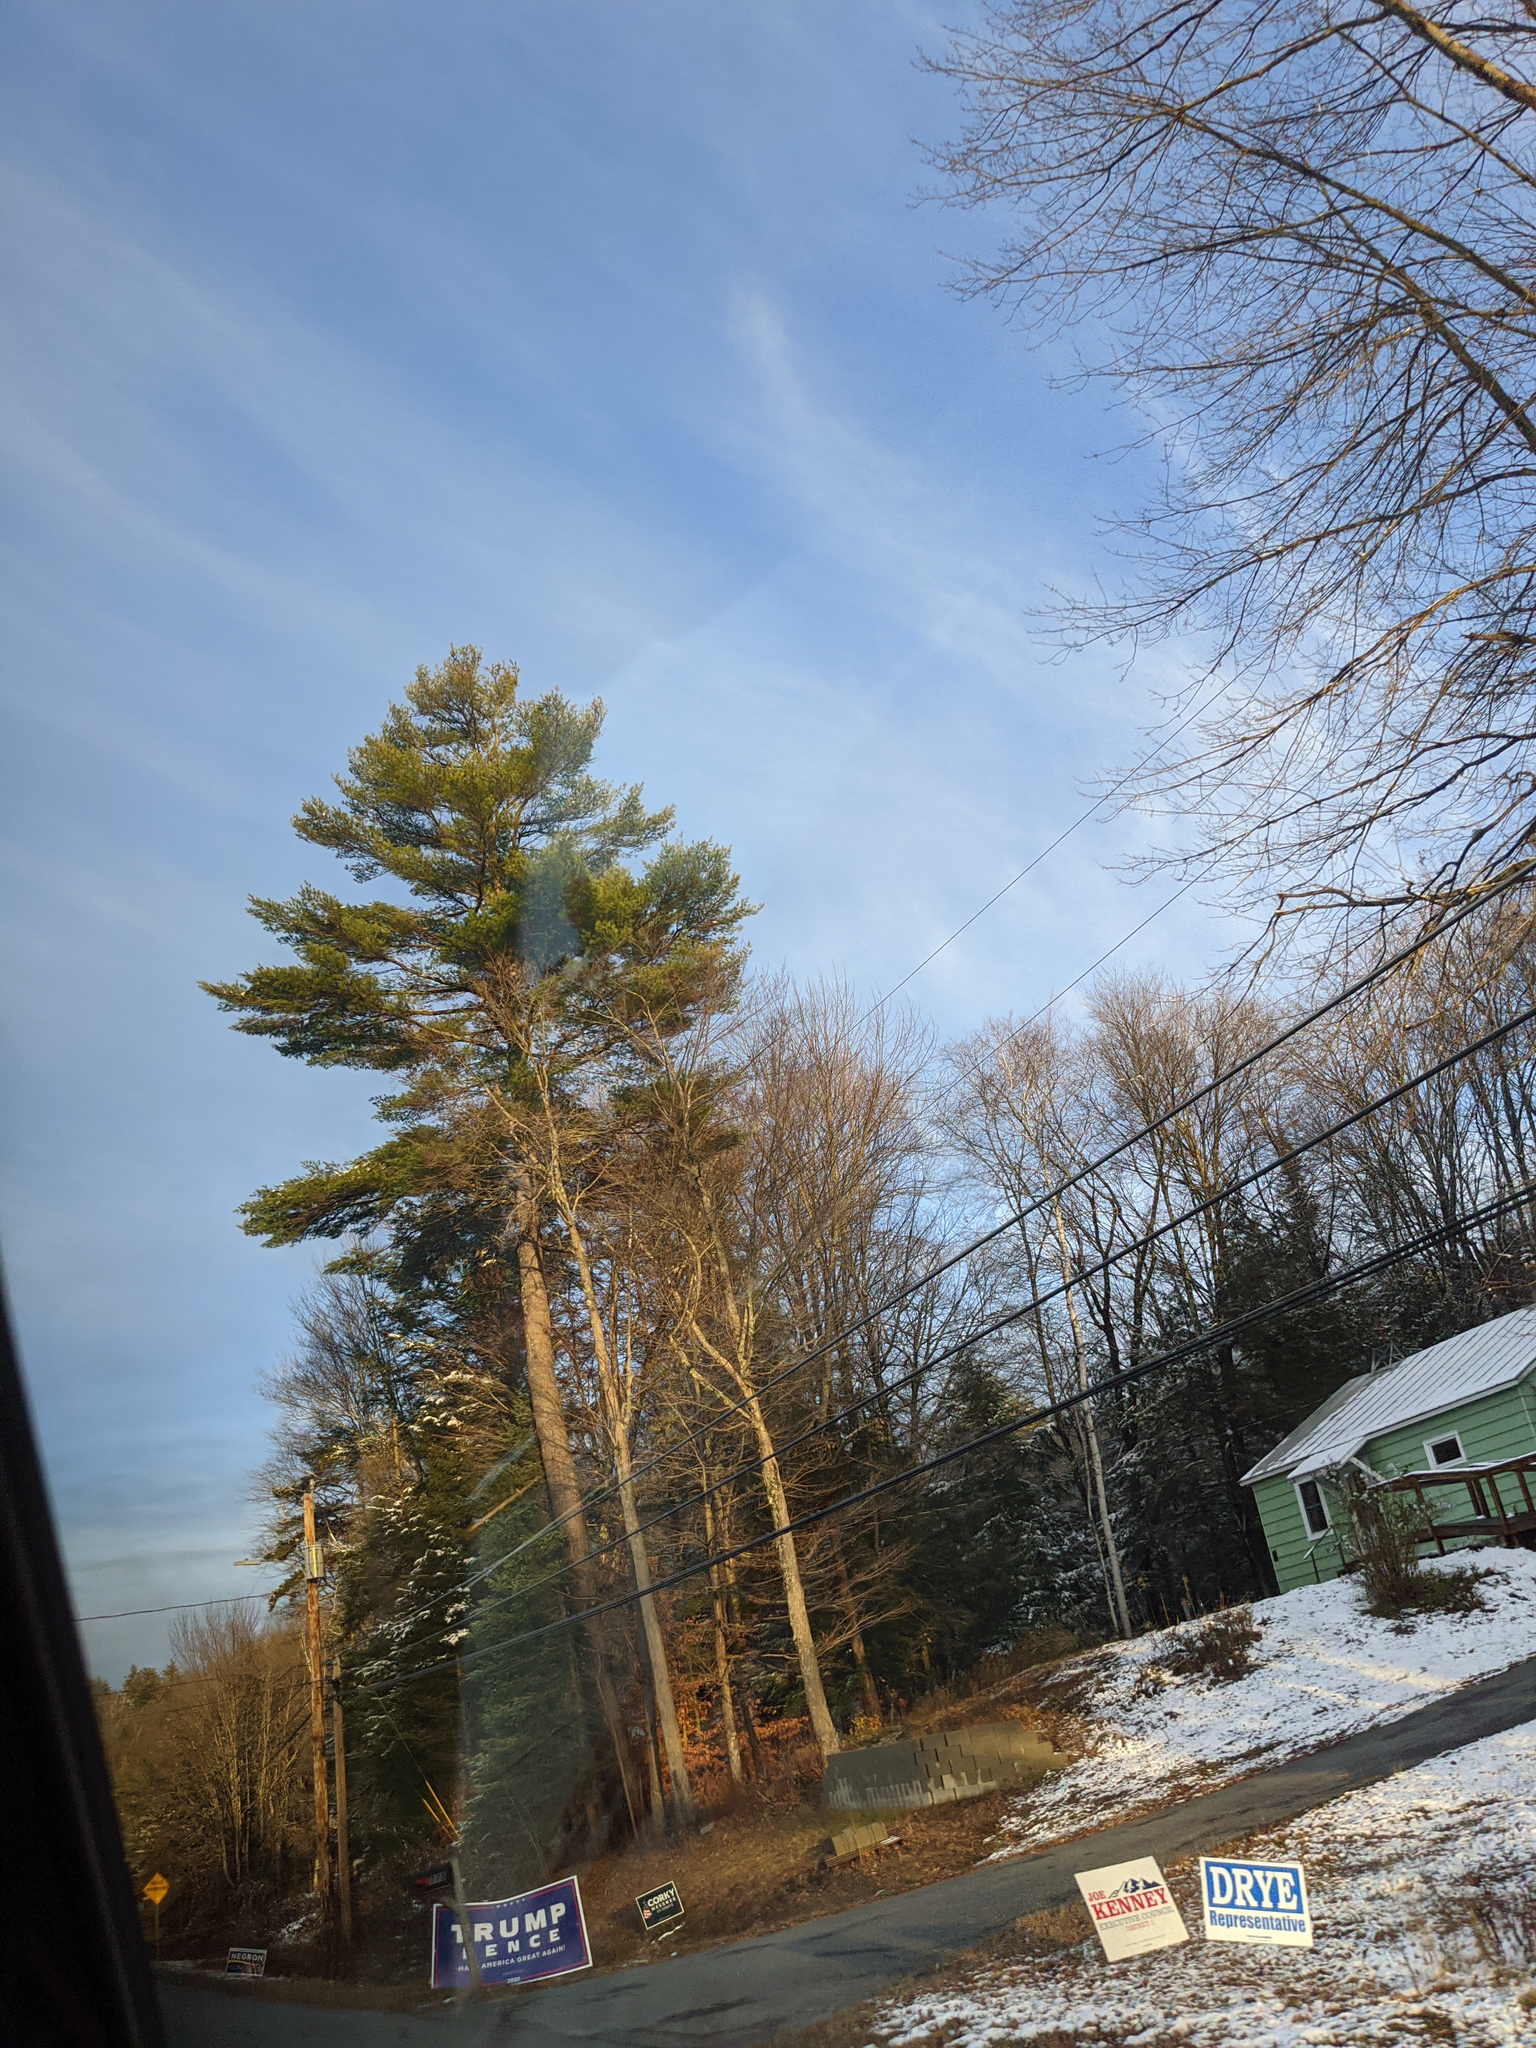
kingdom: Plantae
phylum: Tracheophyta
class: Pinopsida
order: Pinales
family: Pinaceae
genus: Pinus
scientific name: Pinus strobus
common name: Weymouth pine
